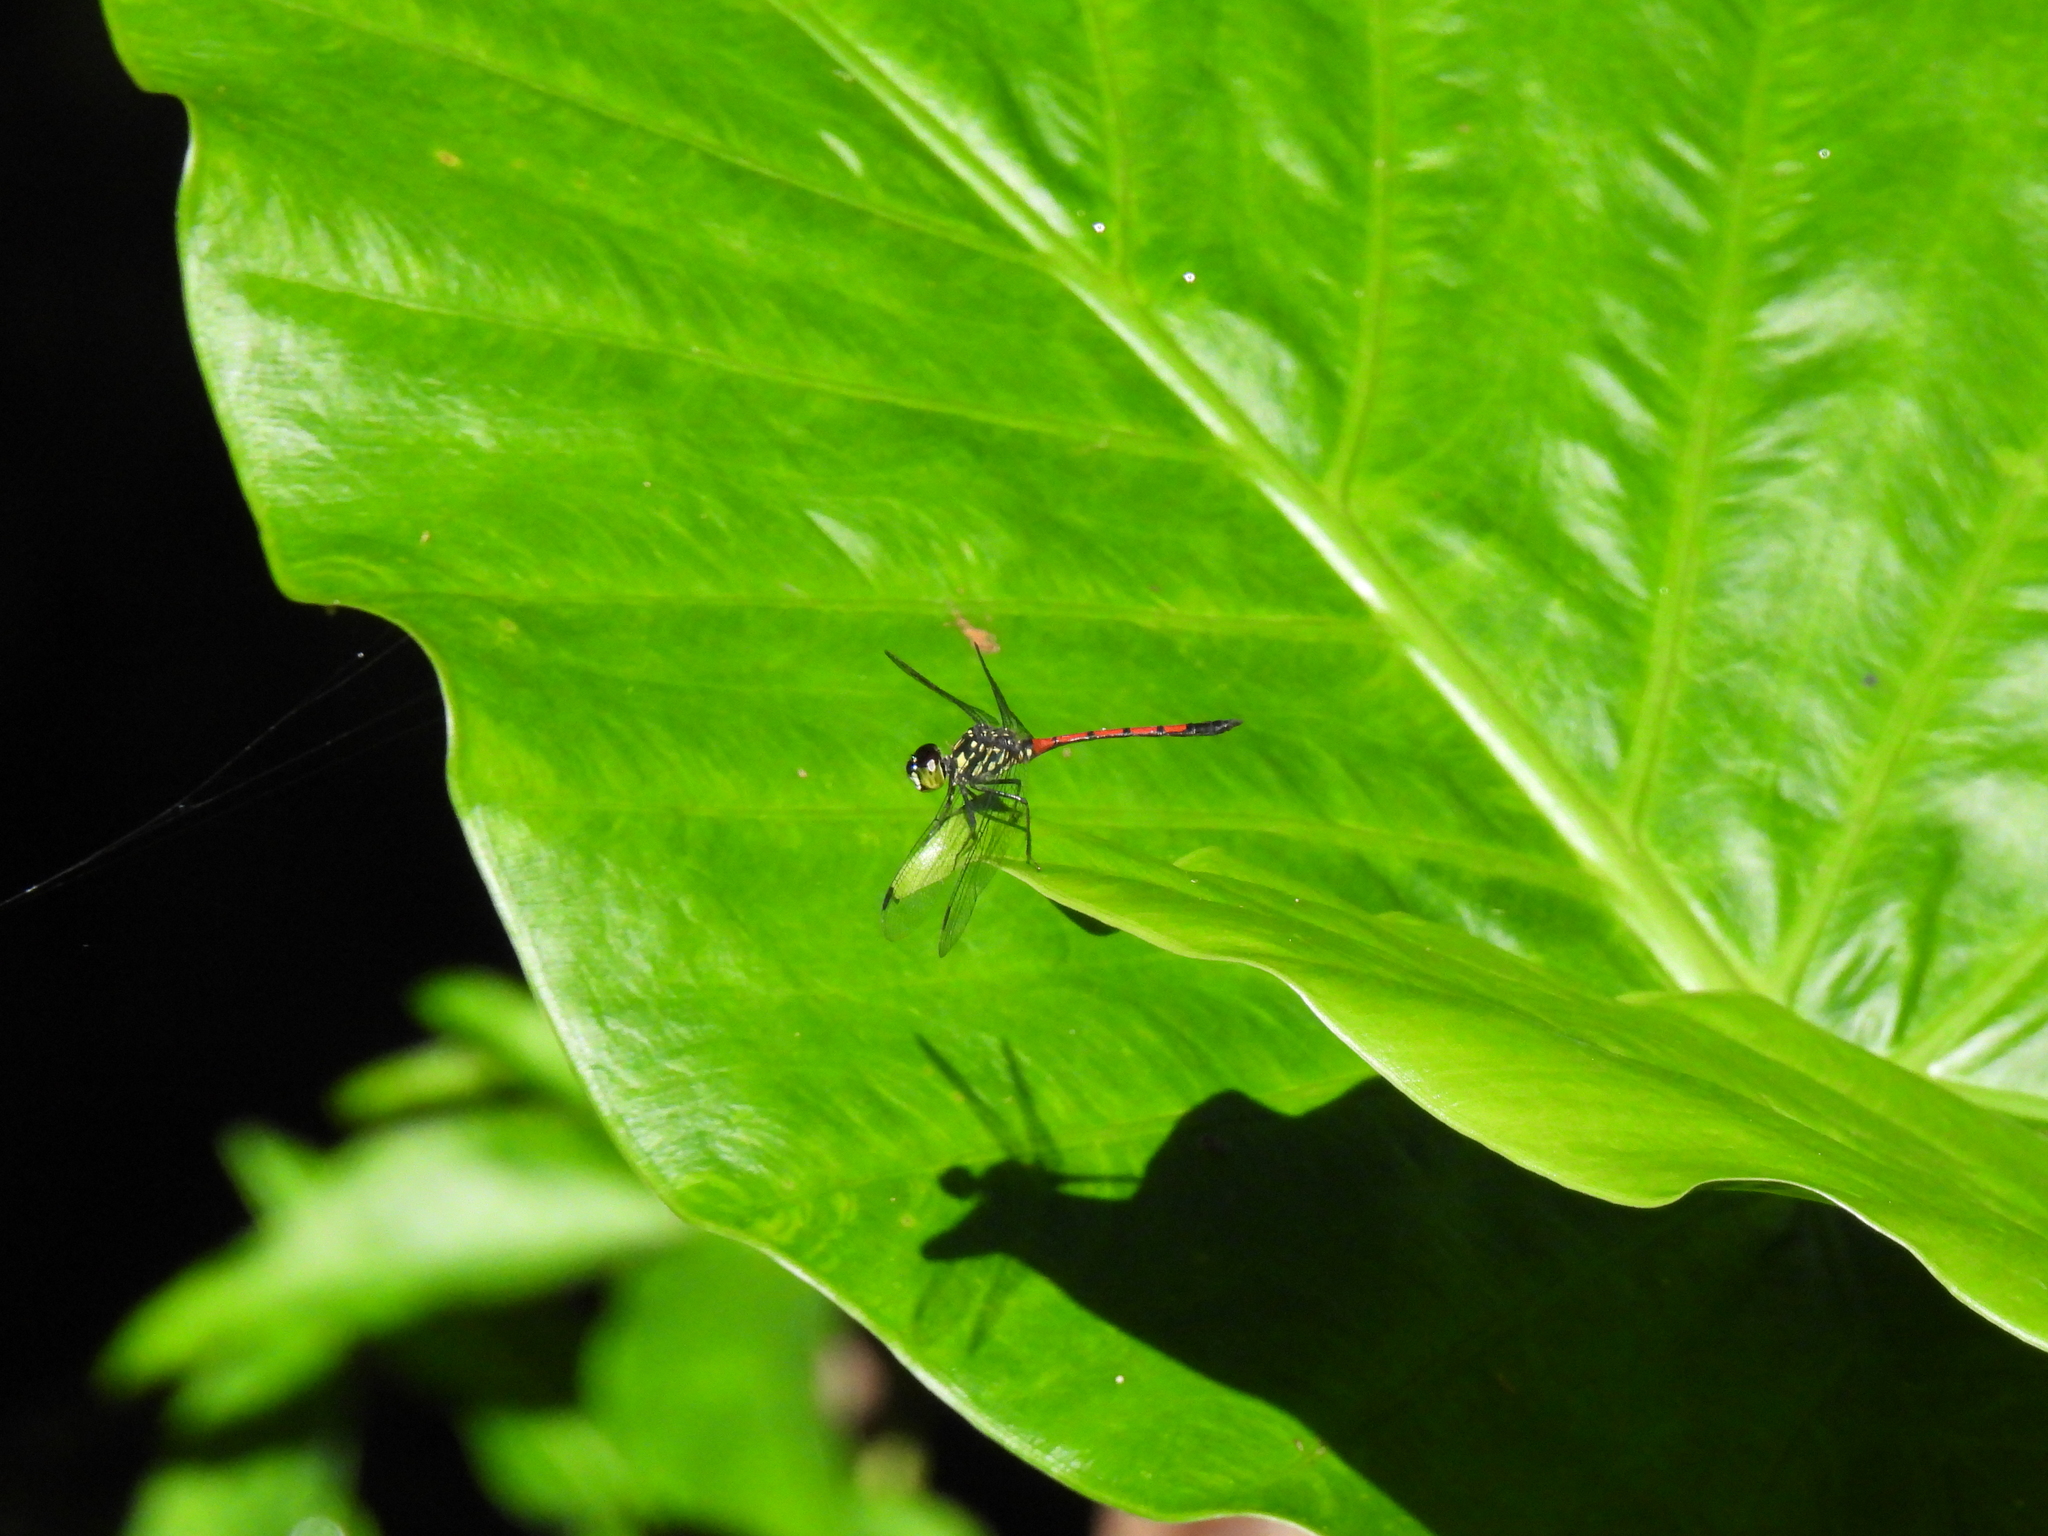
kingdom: Animalia
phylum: Arthropoda
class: Insecta
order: Odonata
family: Libellulidae
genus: Agrionoptera
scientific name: Agrionoptera insignis
